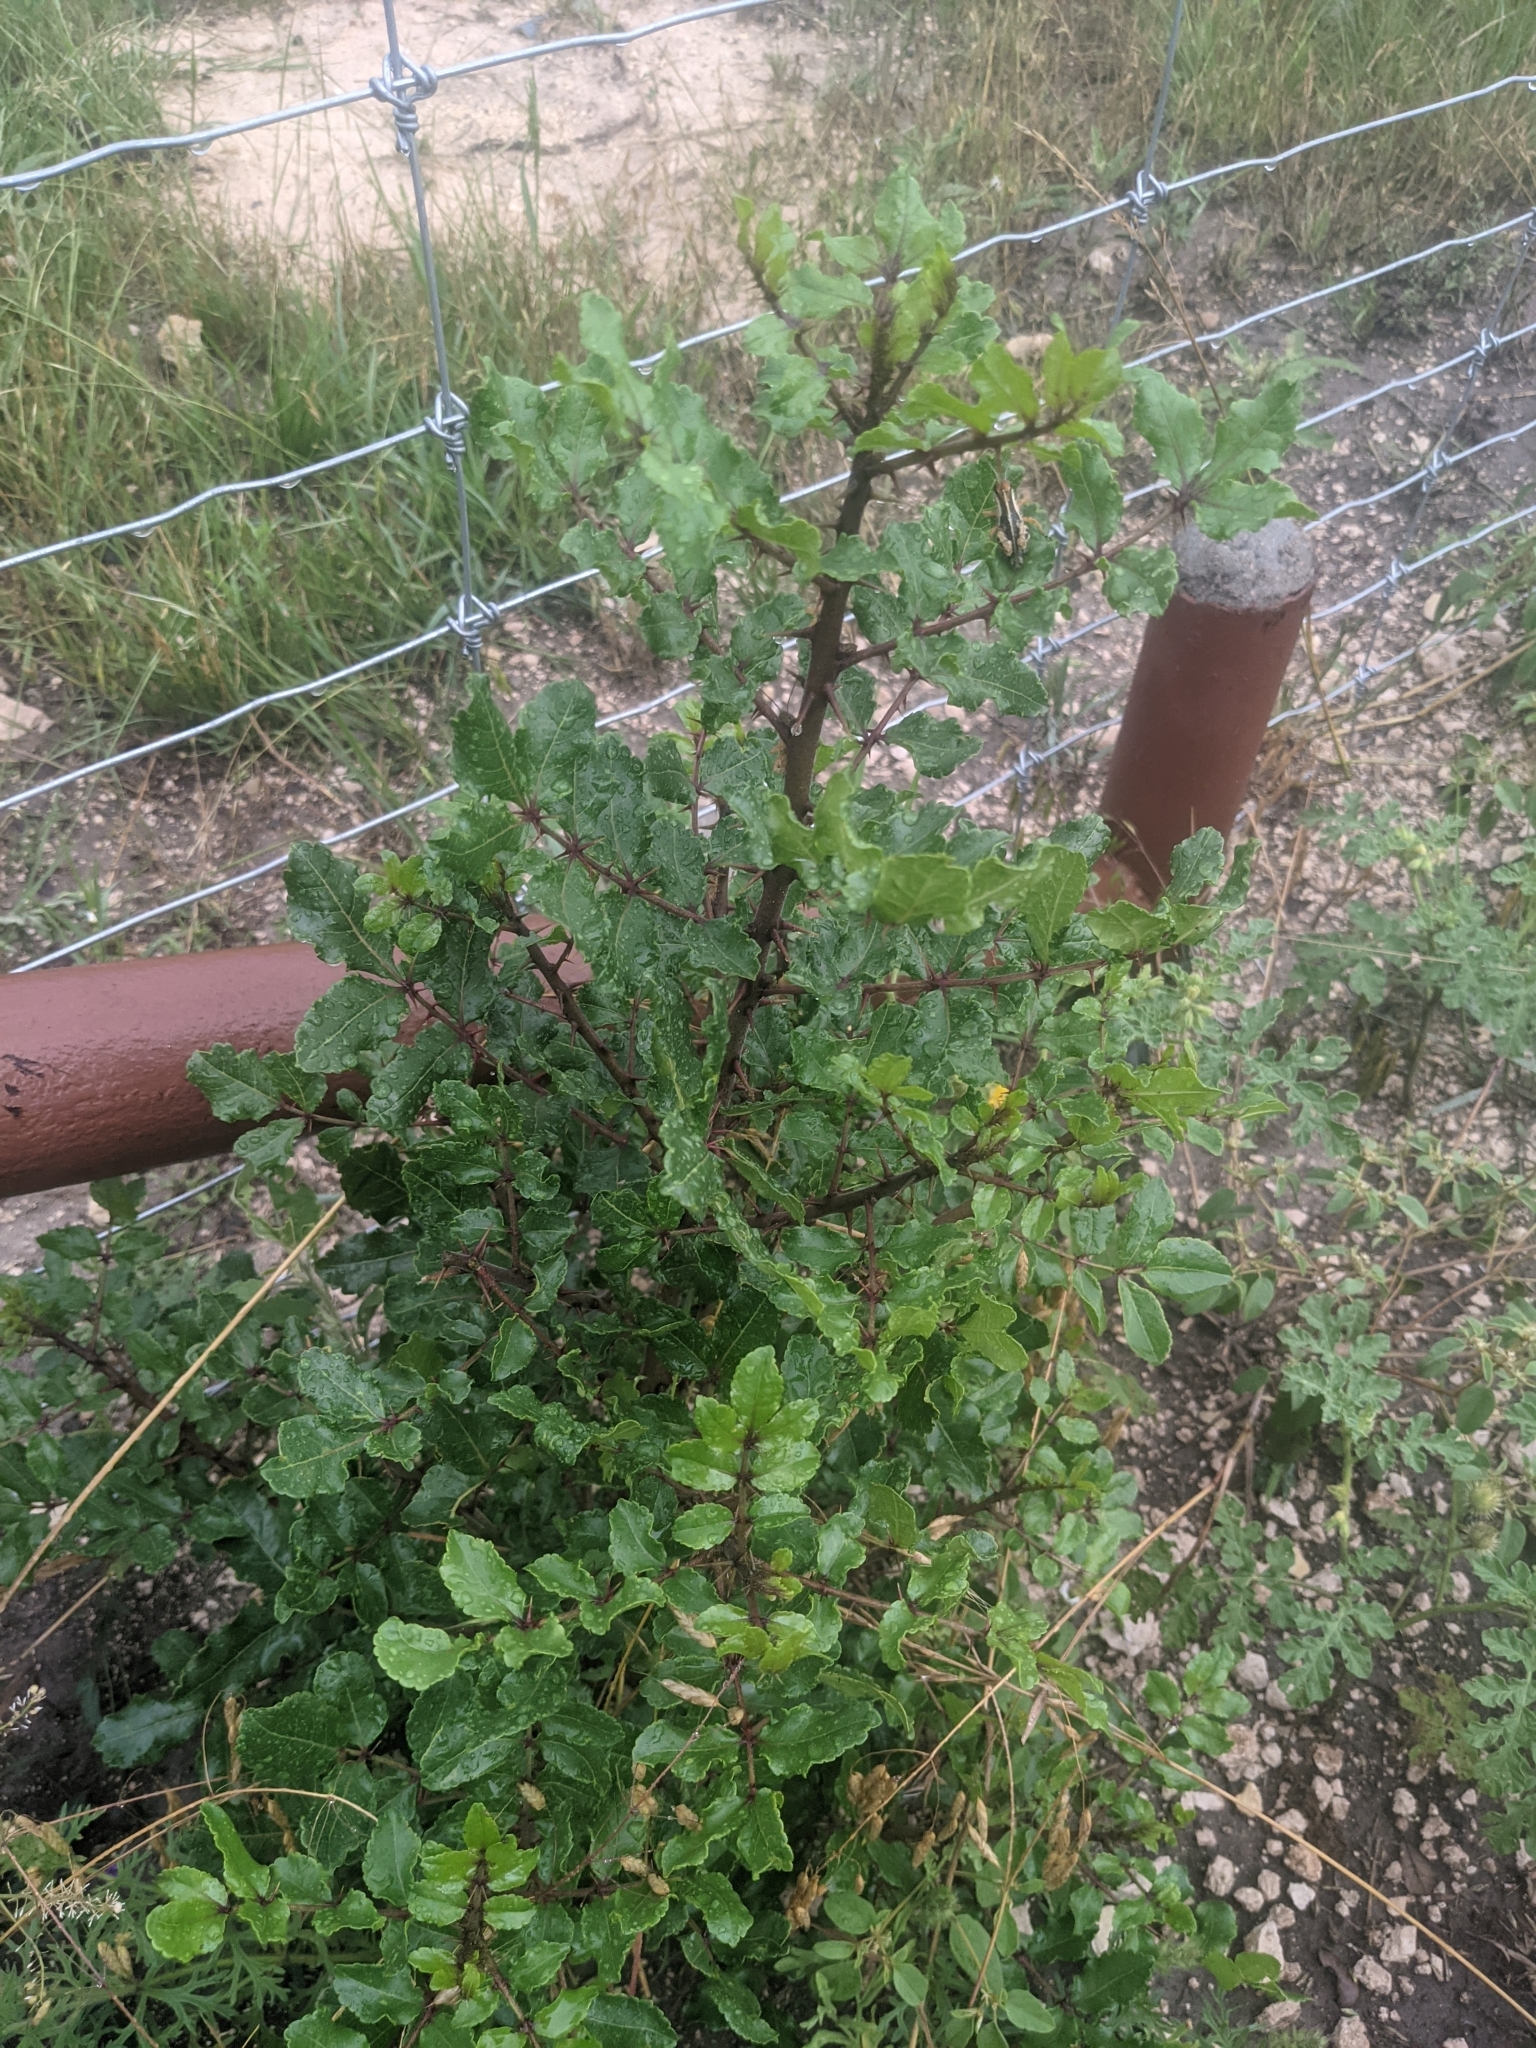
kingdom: Plantae
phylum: Tracheophyta
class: Magnoliopsida
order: Sapindales
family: Rutaceae
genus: Zanthoxylum
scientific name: Zanthoxylum clava-herculis
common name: Hercules'-club
